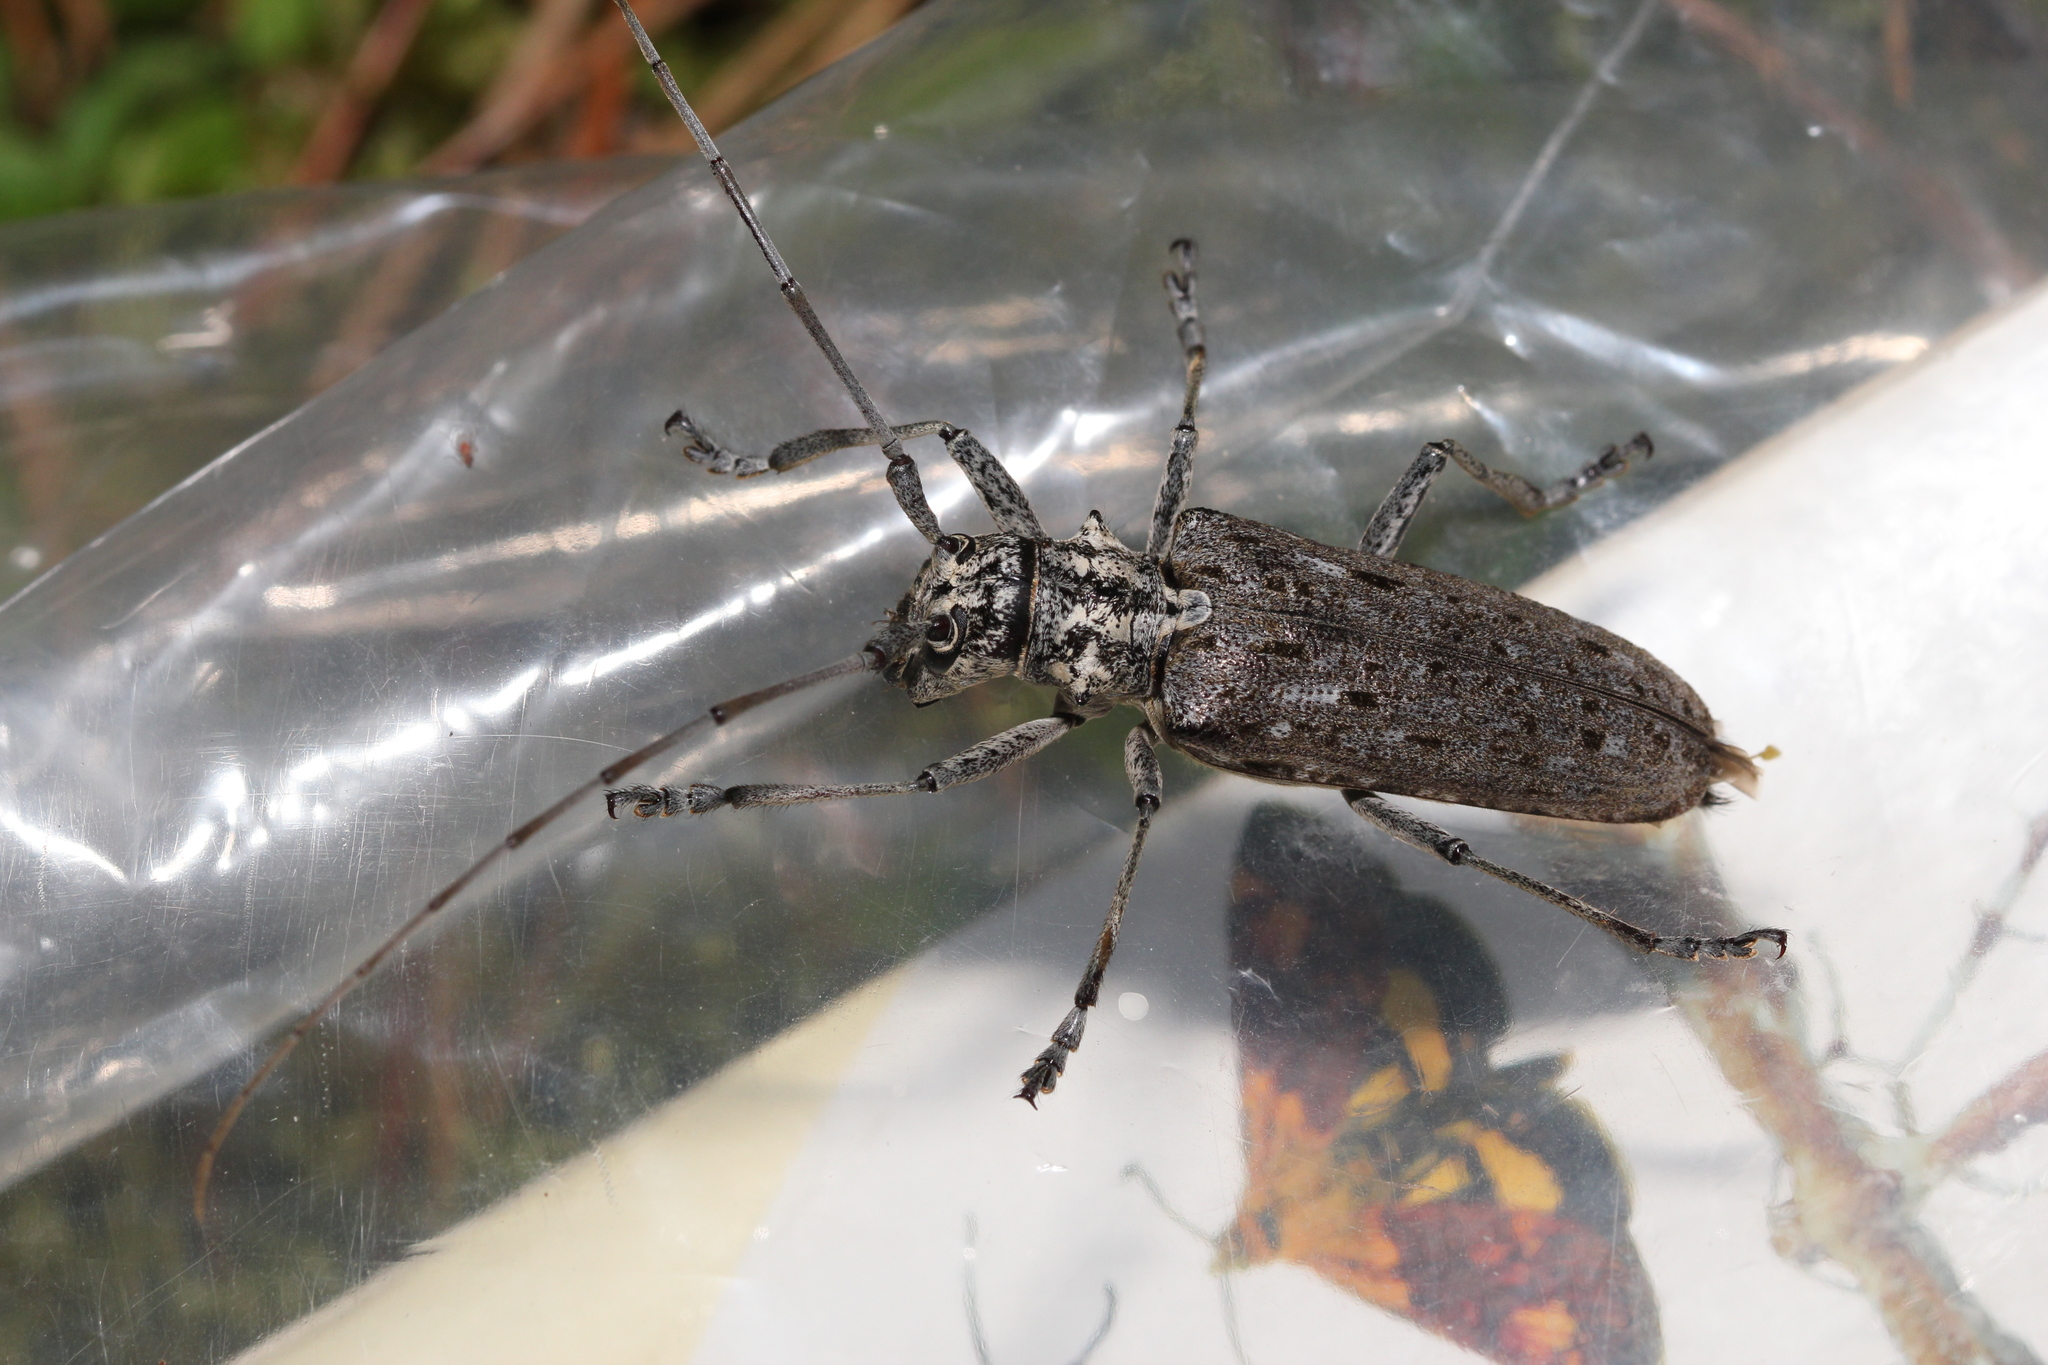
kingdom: Animalia
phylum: Arthropoda
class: Insecta
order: Coleoptera
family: Cerambycidae
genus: Monochamus
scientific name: Monochamus notatus
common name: Northeastern pine sawyer beetle
